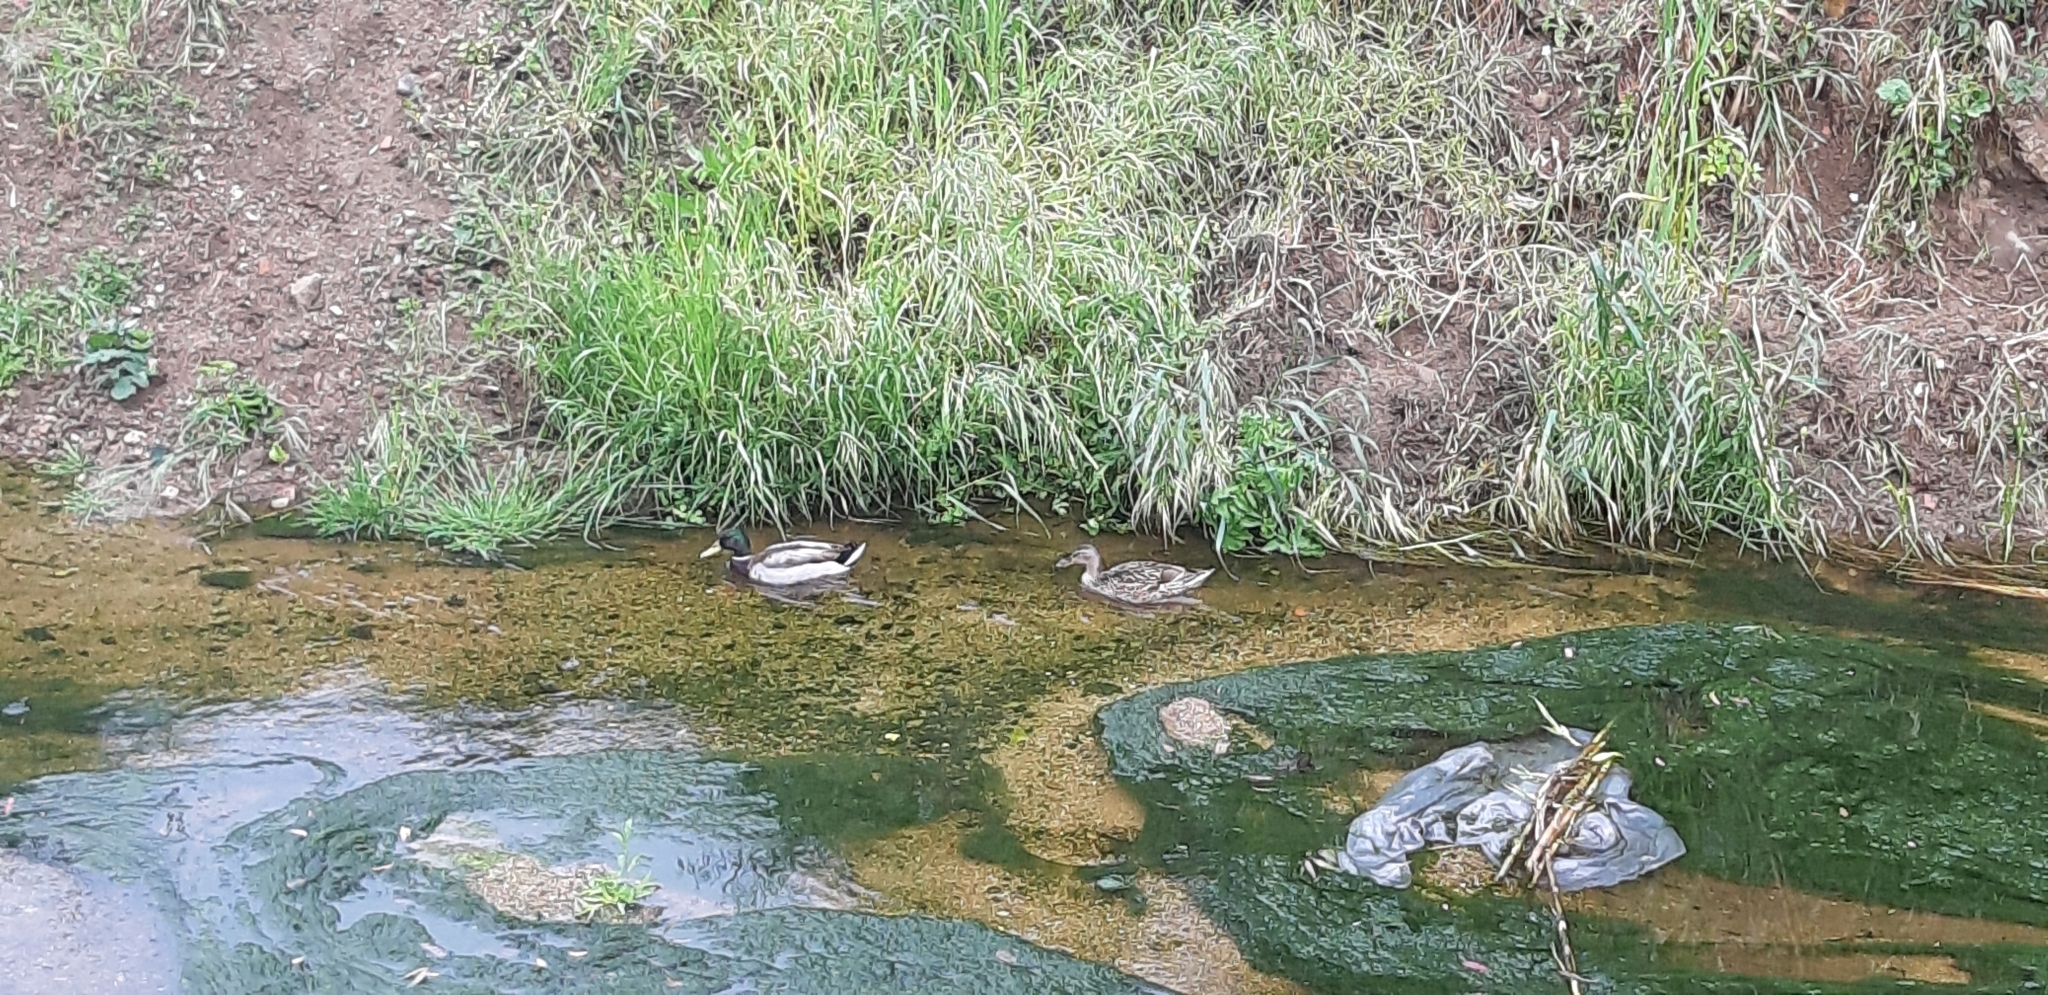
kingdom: Animalia
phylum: Chordata
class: Aves
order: Anseriformes
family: Anatidae
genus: Anas
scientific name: Anas platyrhynchos
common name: Mallard
